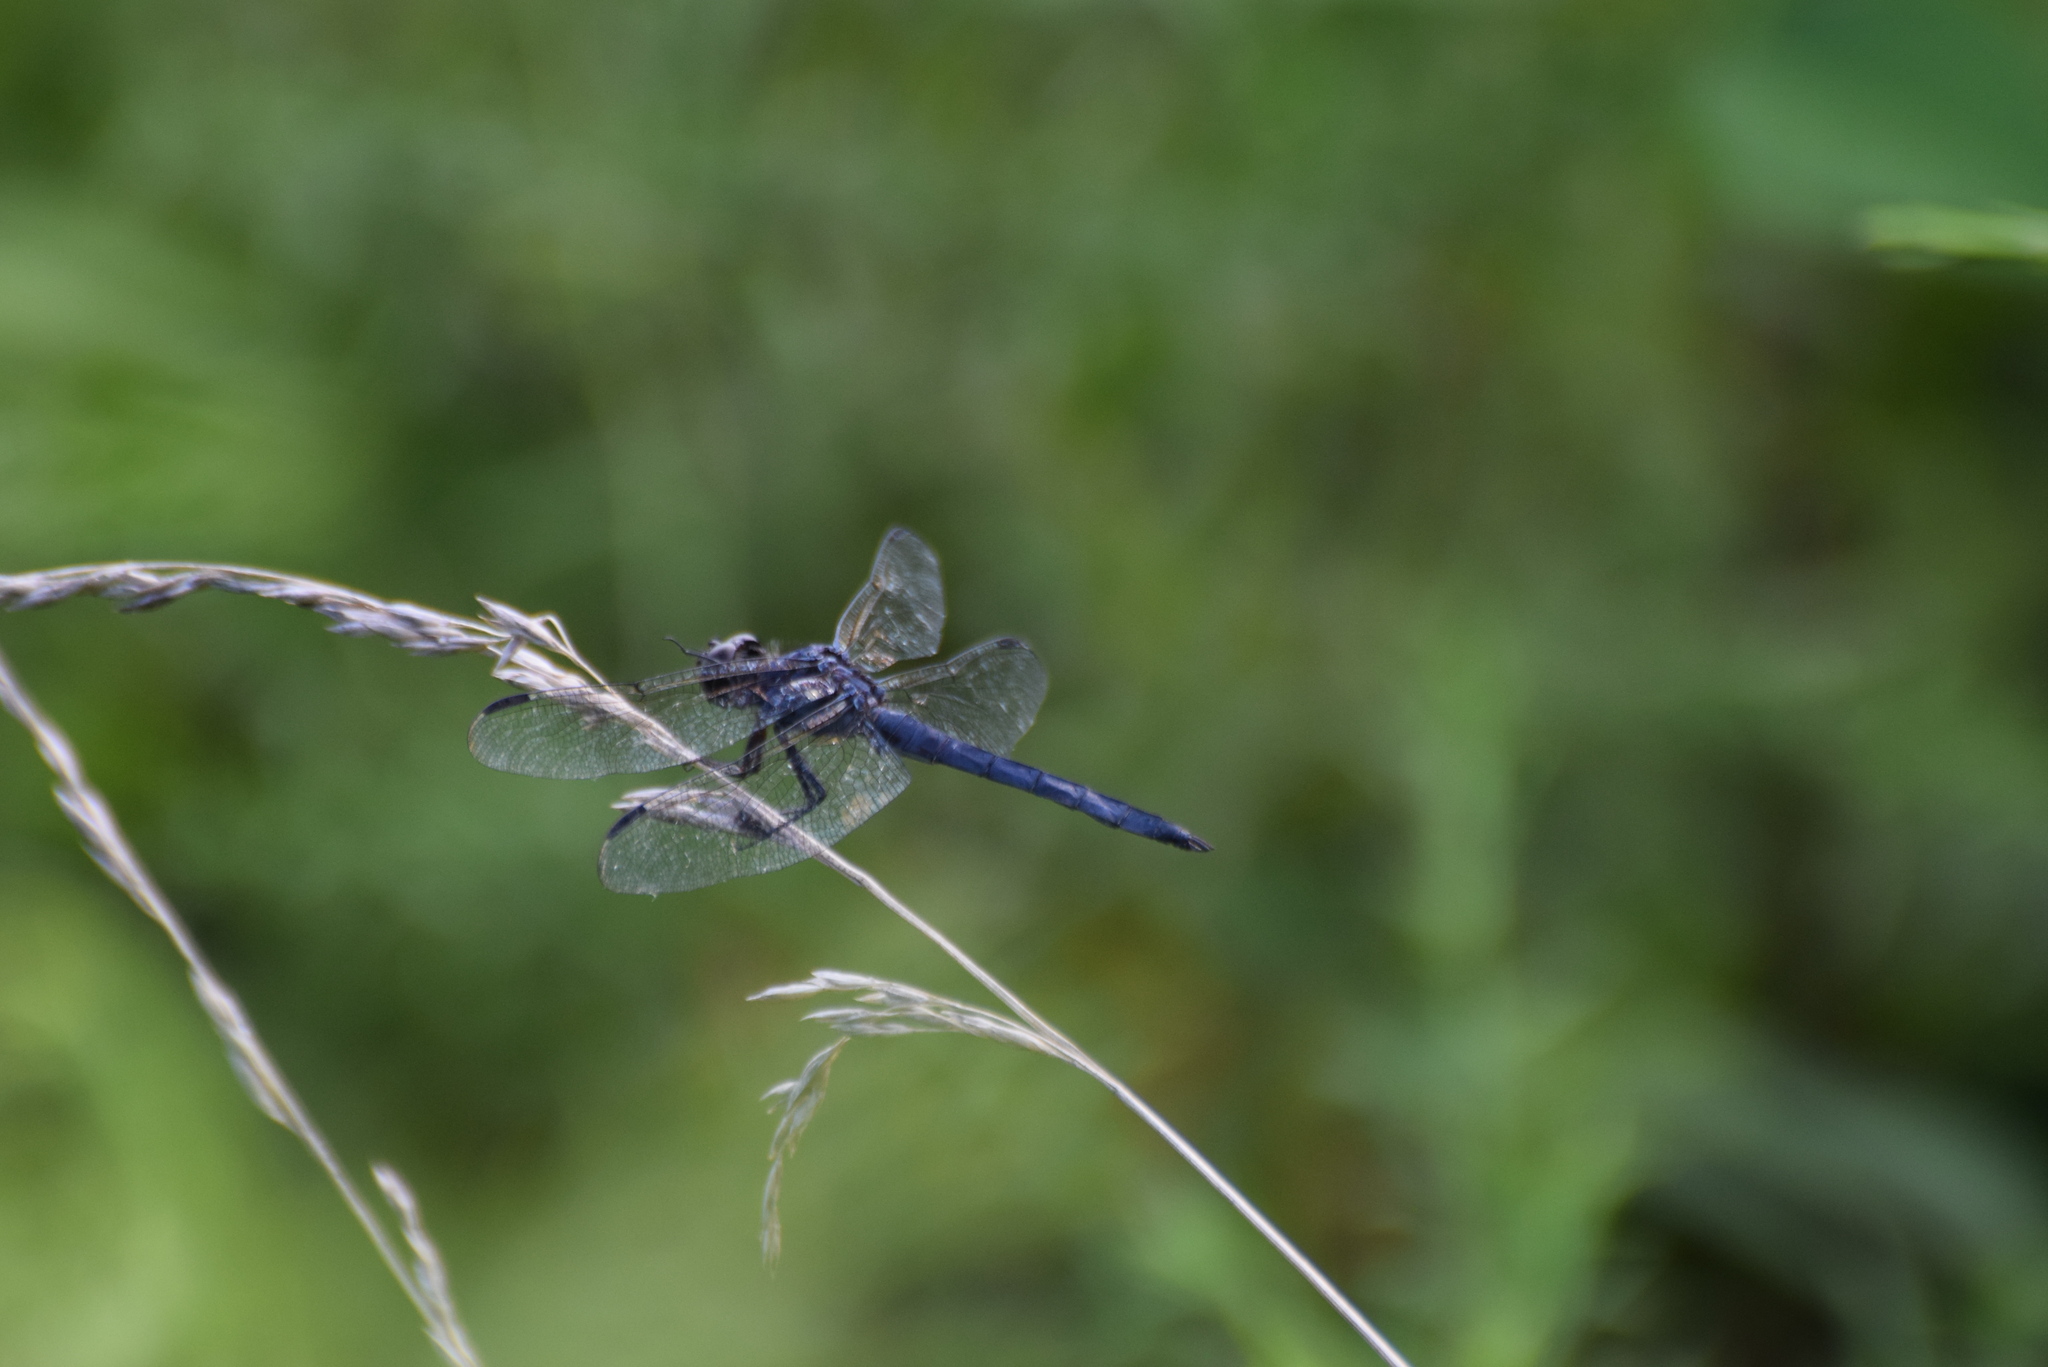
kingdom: Animalia
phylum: Arthropoda
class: Insecta
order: Odonata
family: Libellulidae
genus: Libellula
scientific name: Libellula incesta
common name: Slaty skimmer
